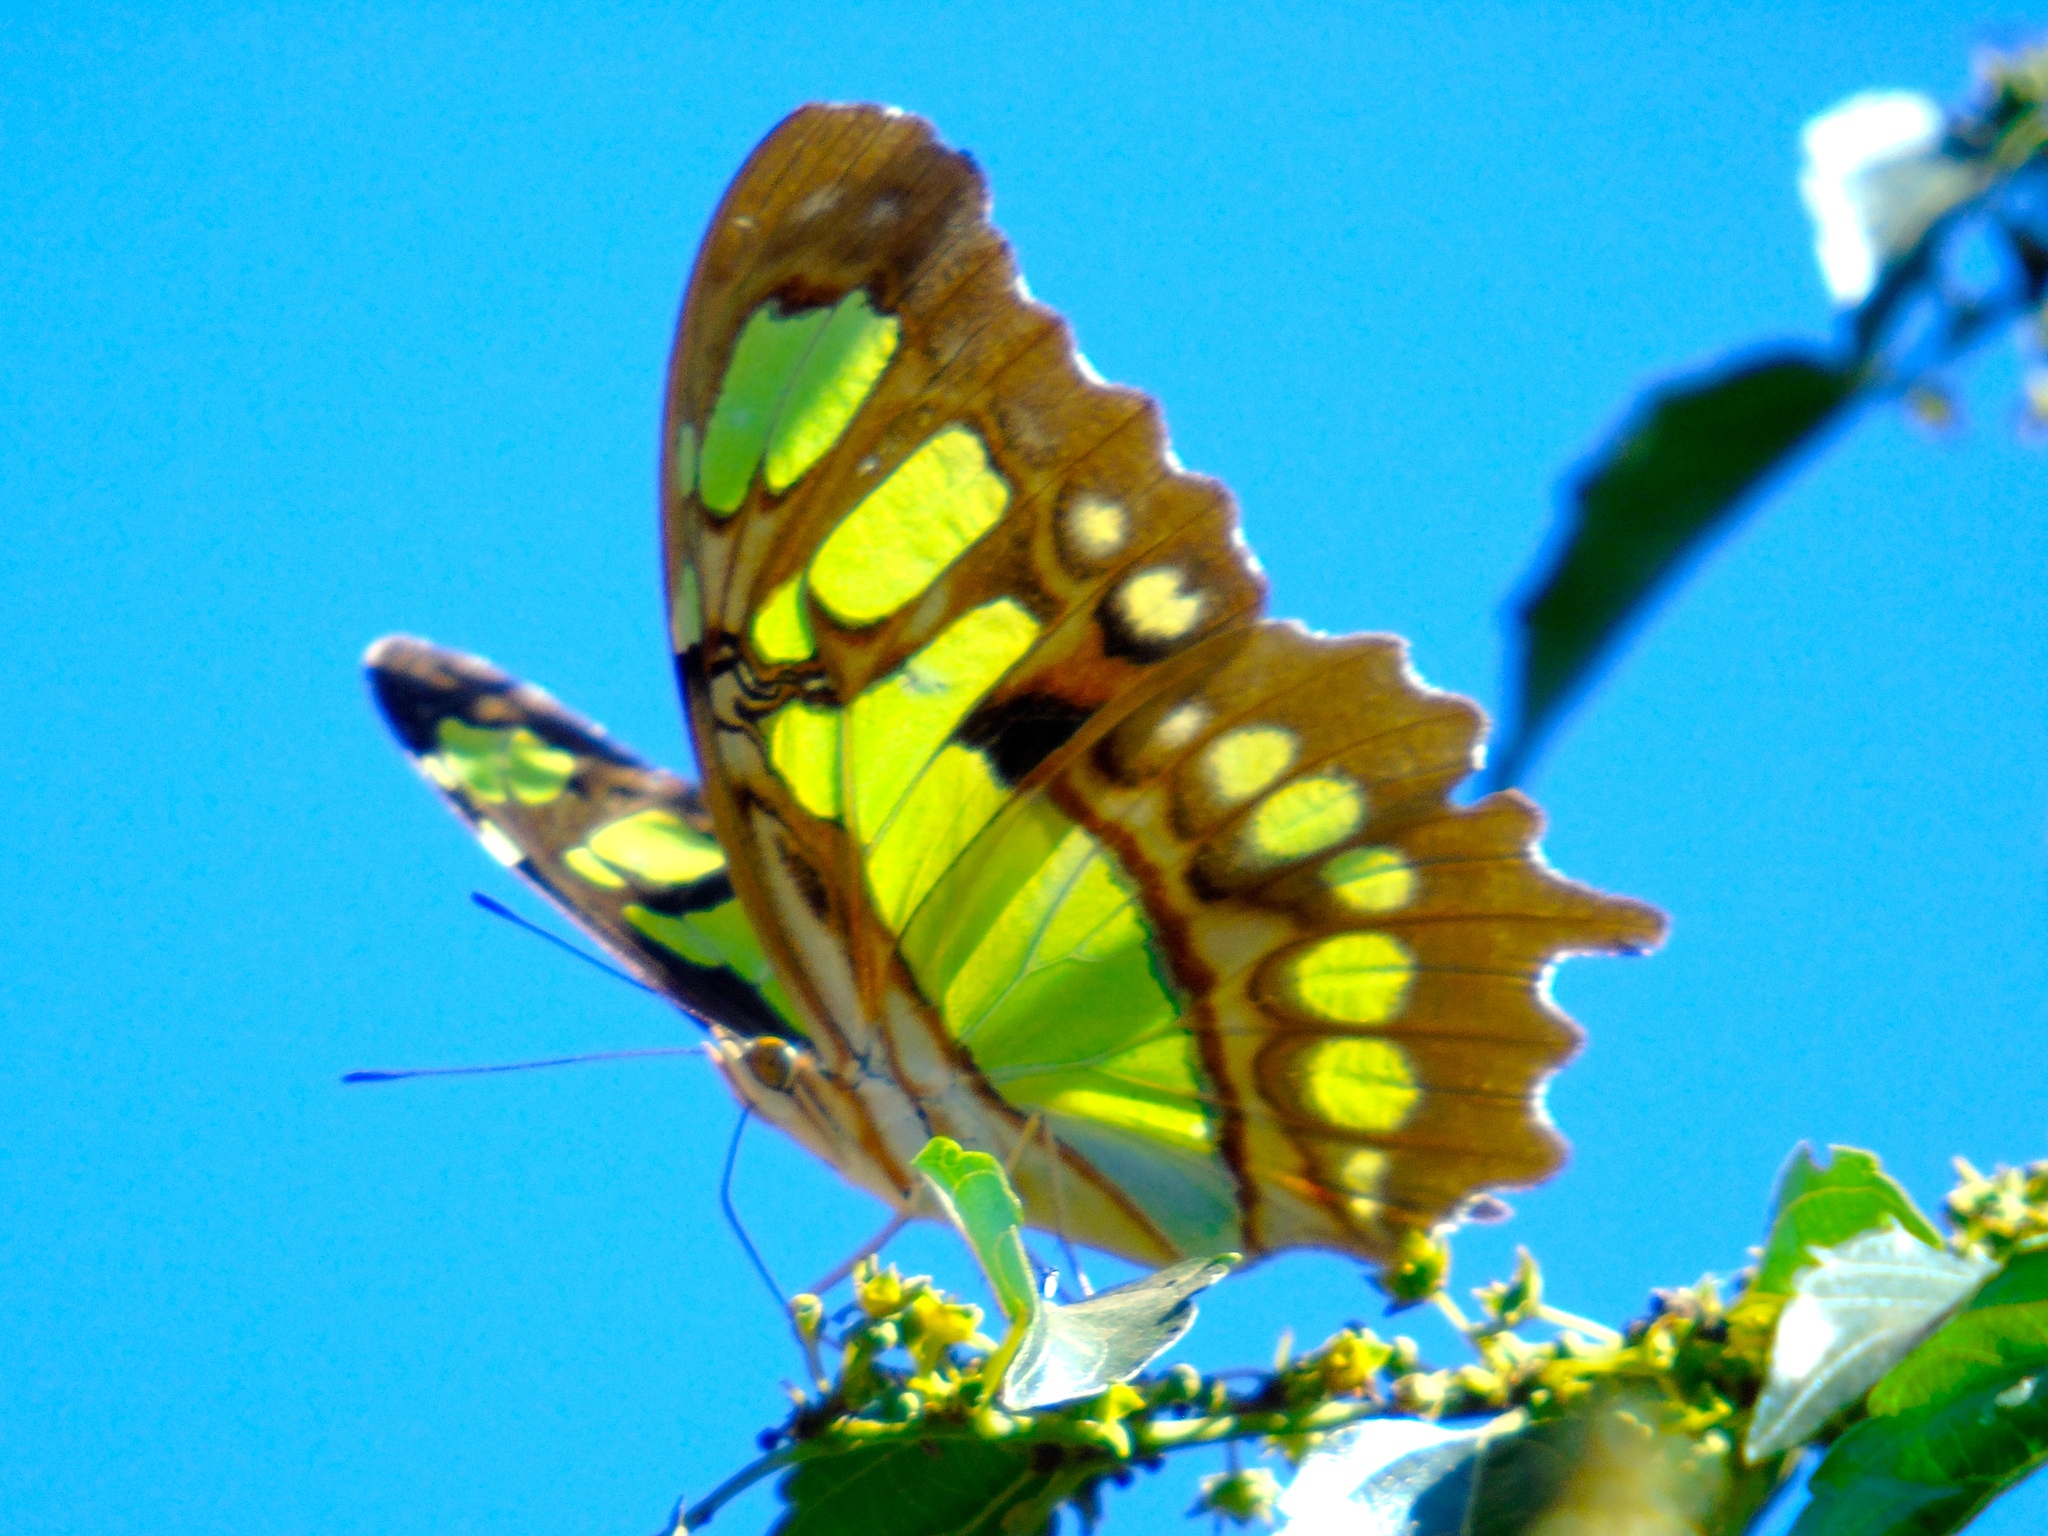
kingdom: Animalia
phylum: Arthropoda
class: Insecta
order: Lepidoptera
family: Nymphalidae
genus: Siproeta
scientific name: Siproeta stelenes
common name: Malachite
